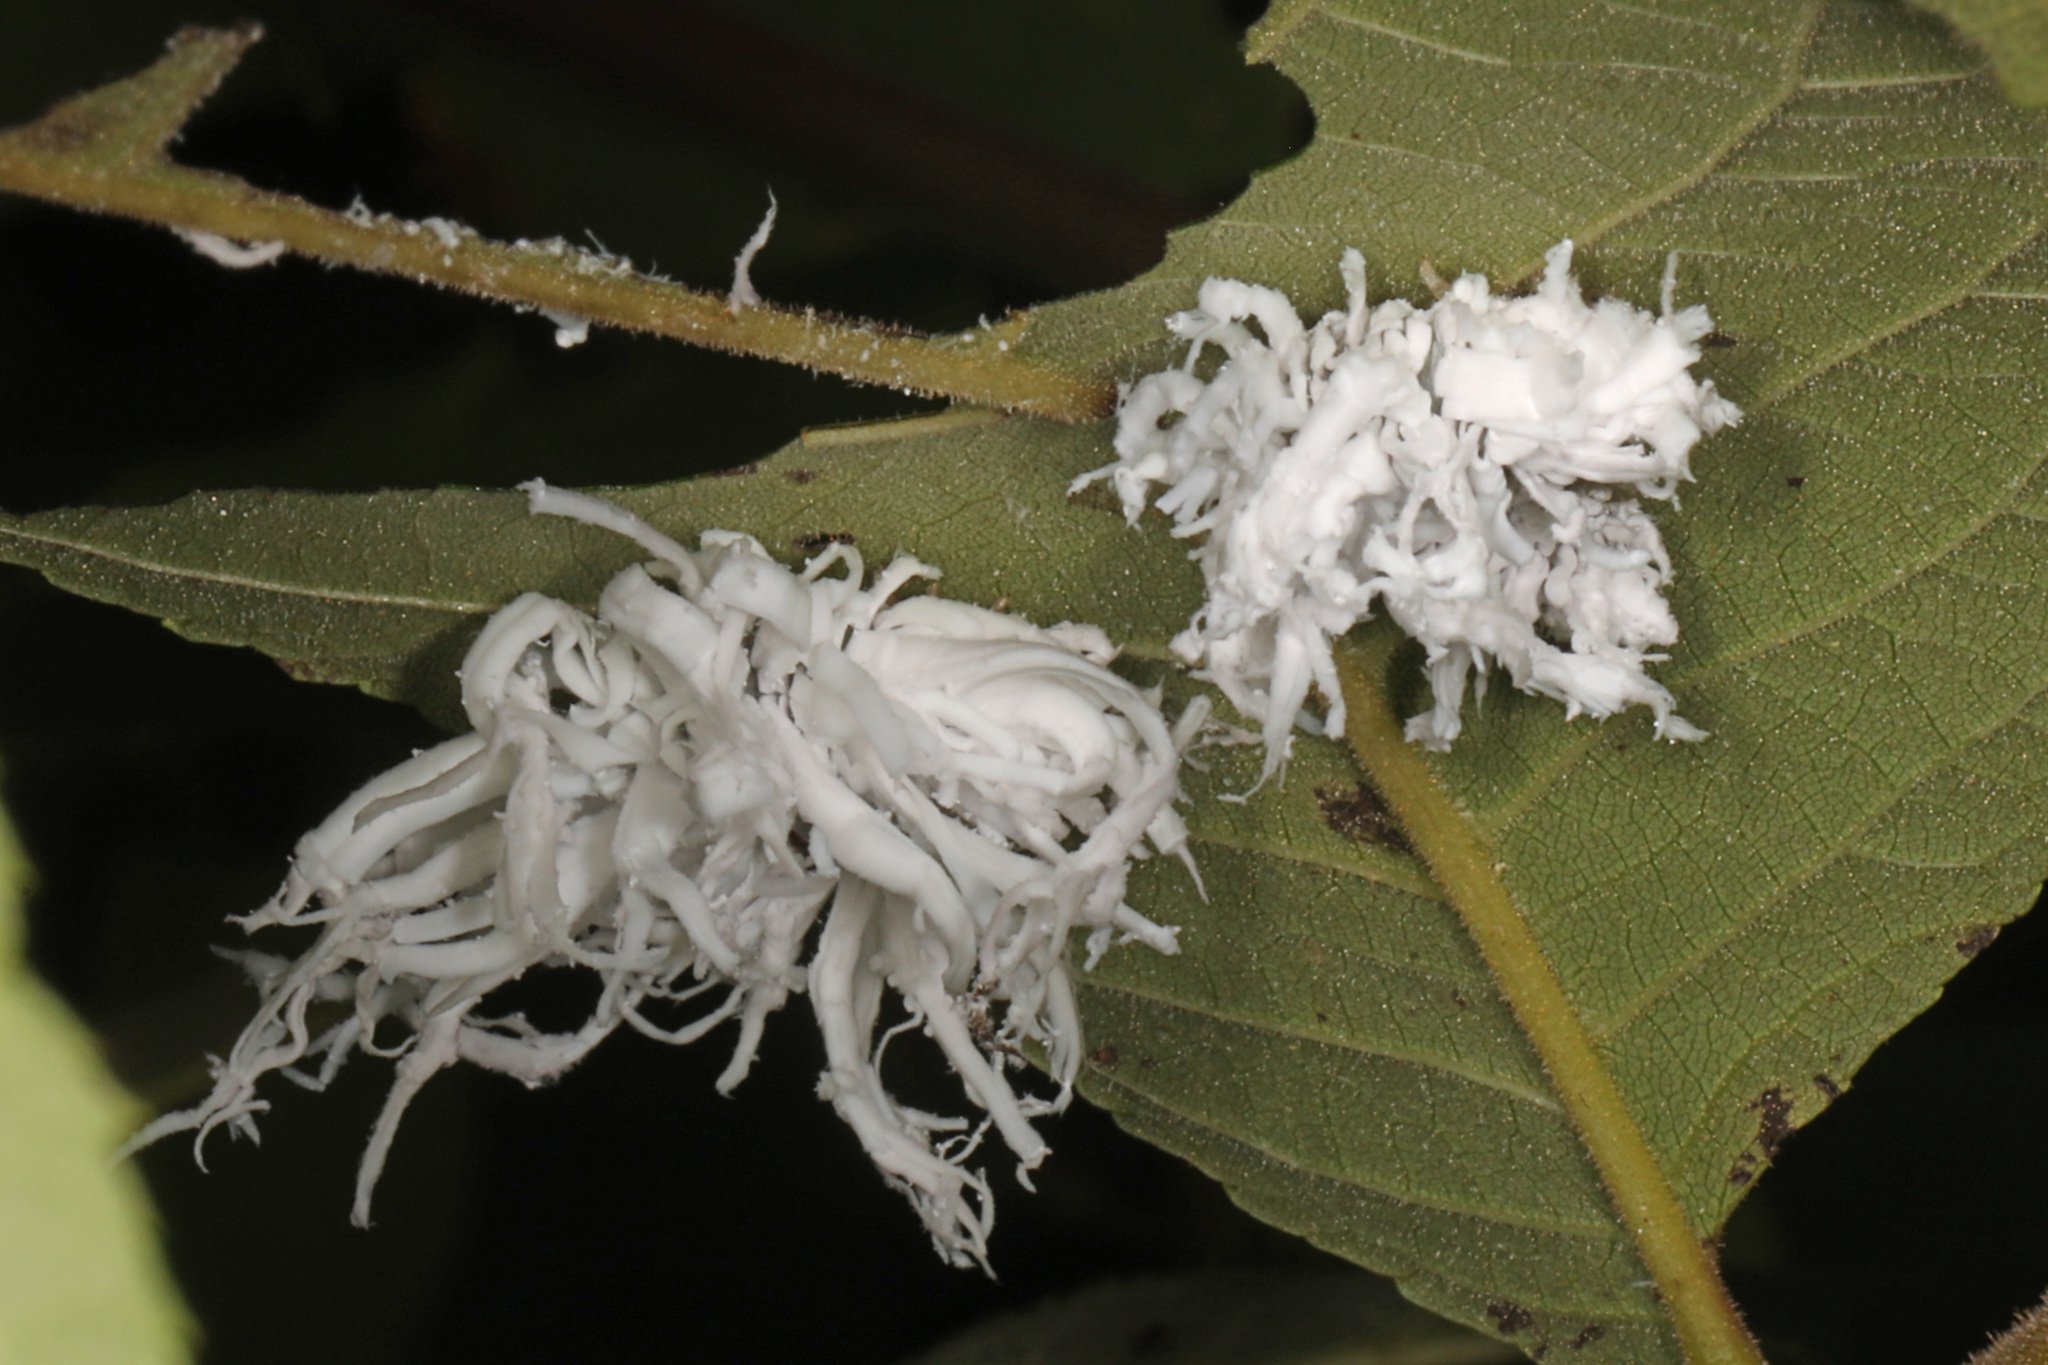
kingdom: Animalia
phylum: Arthropoda
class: Insecta
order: Hymenoptera
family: Tenthredinidae
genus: Eriocampa
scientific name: Eriocampa juglandis
